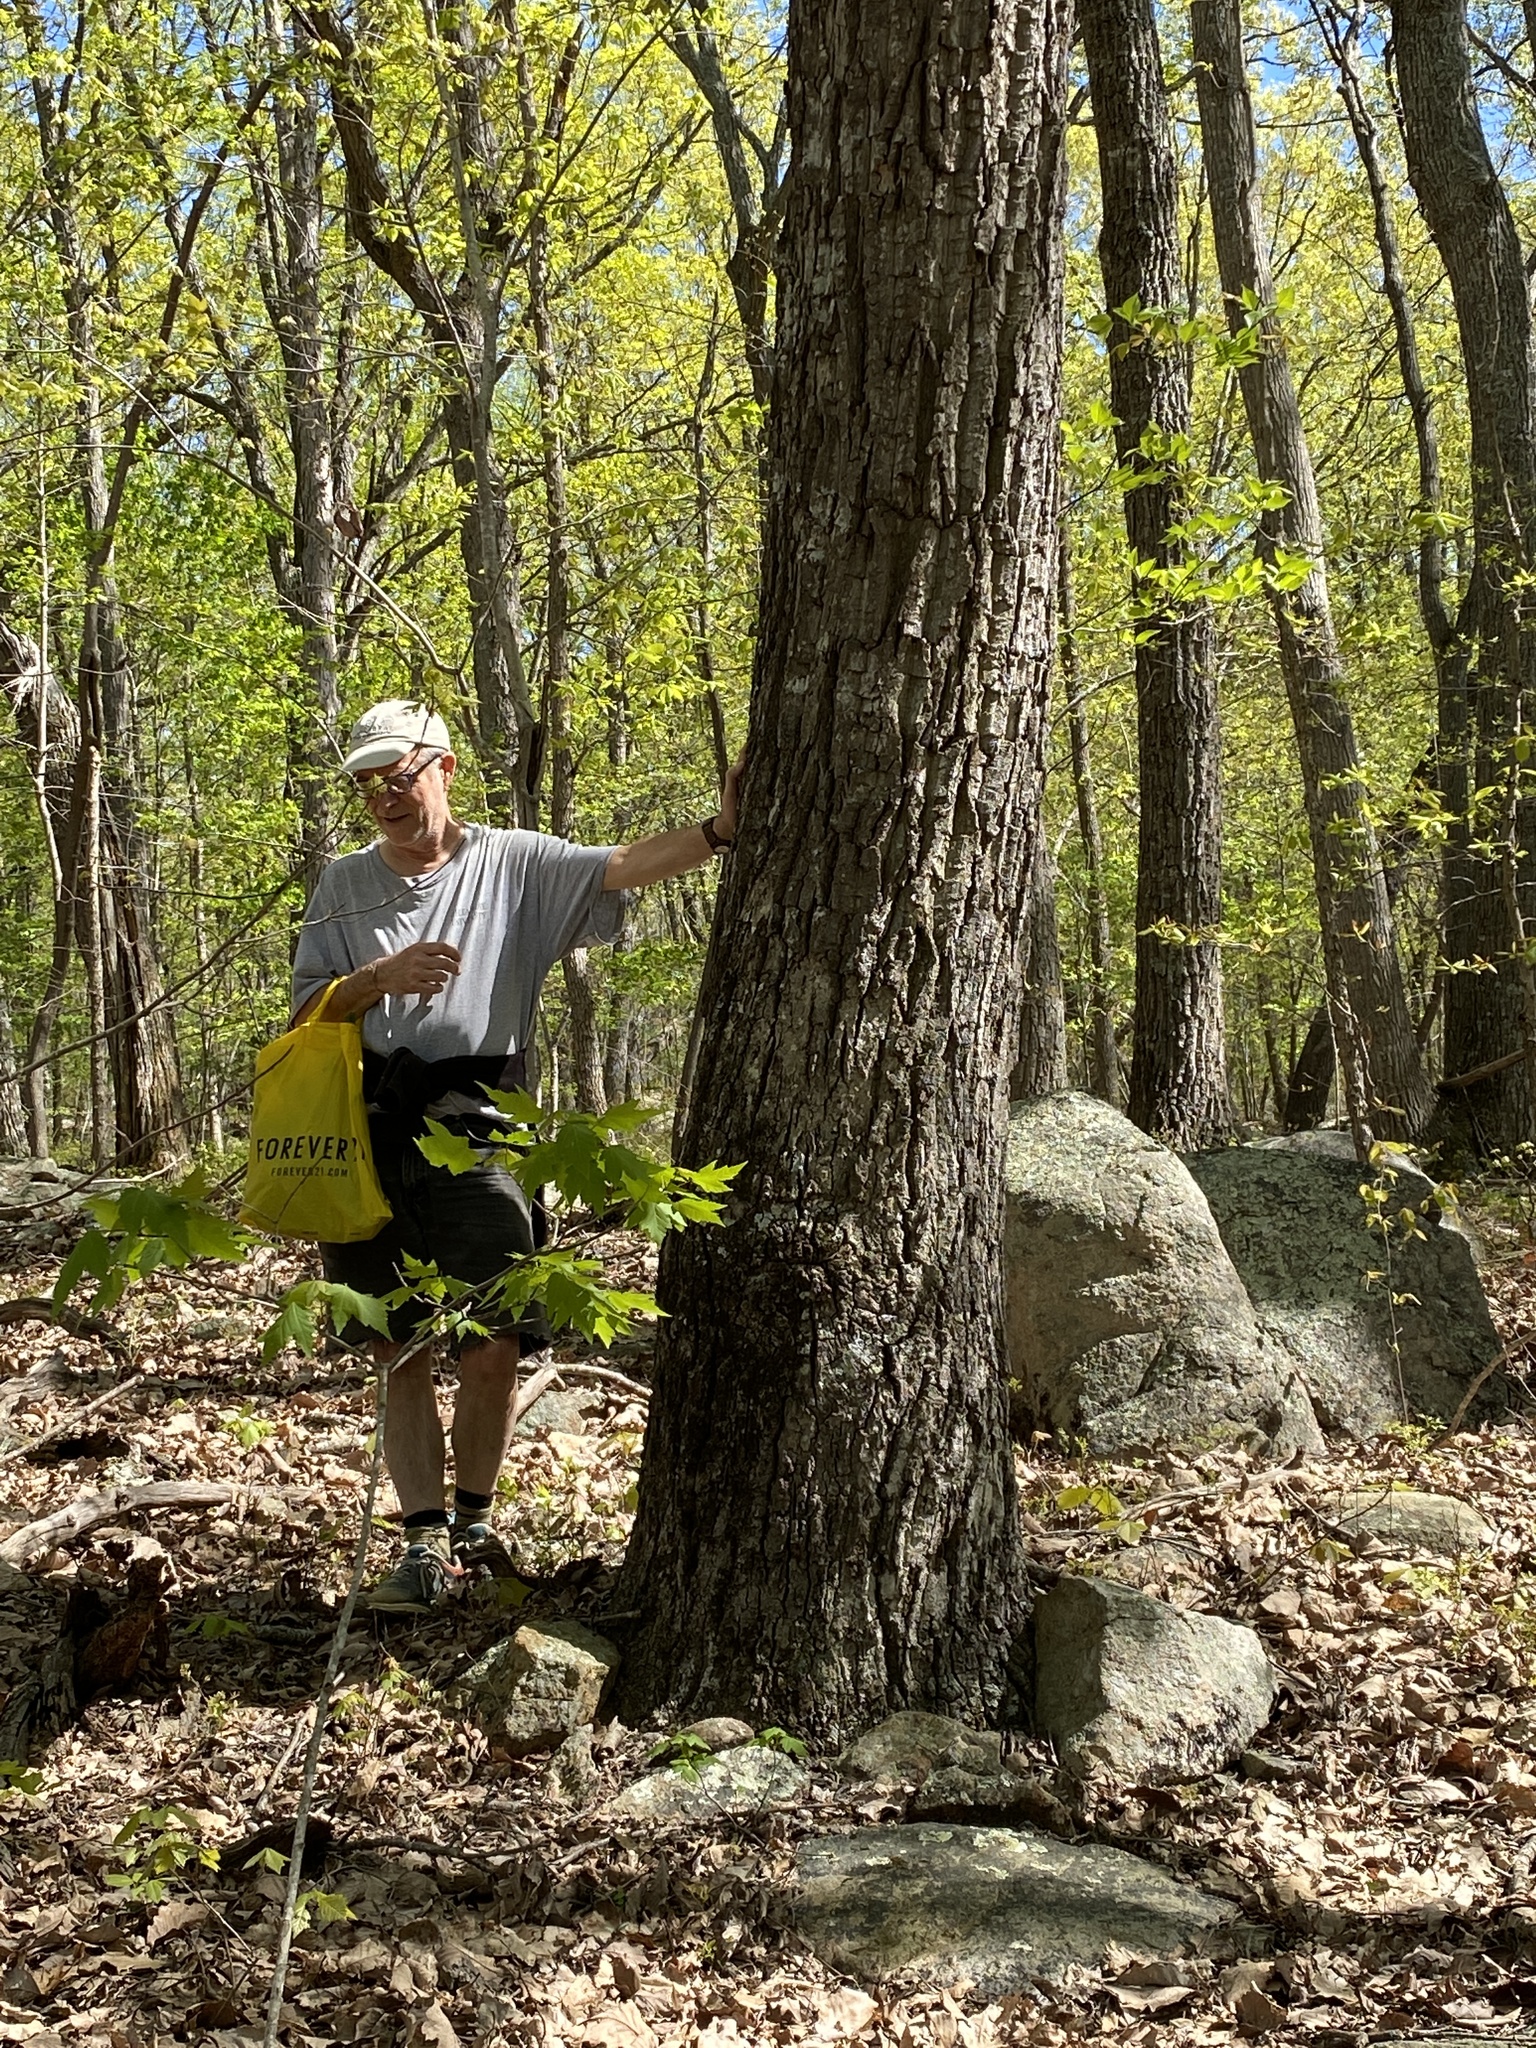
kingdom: Plantae
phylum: Tracheophyta
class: Magnoliopsida
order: Fagales
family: Fagaceae
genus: Quercus
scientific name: Quercus montana
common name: Chestnut oak
